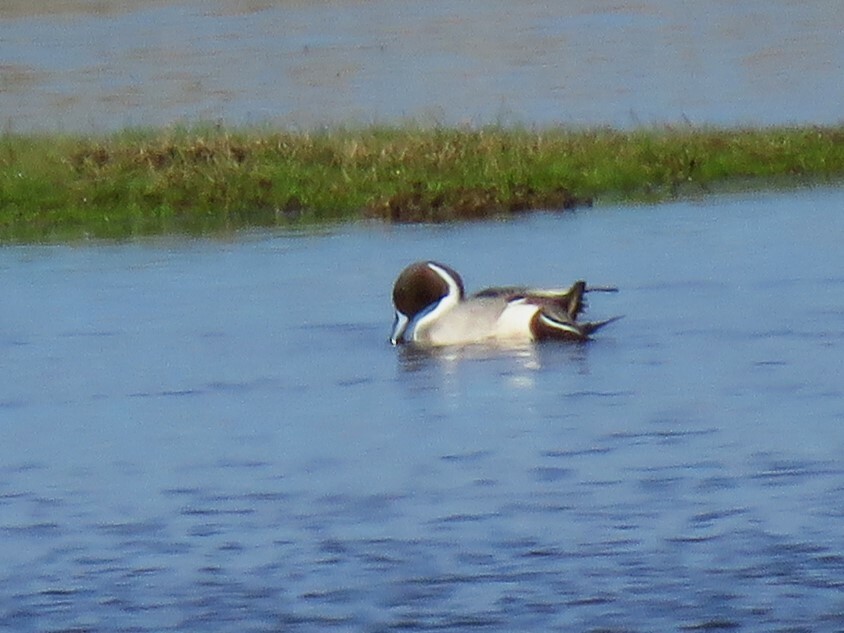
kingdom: Animalia
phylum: Chordata
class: Aves
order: Anseriformes
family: Anatidae
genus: Anas
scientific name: Anas acuta
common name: Northern pintail
